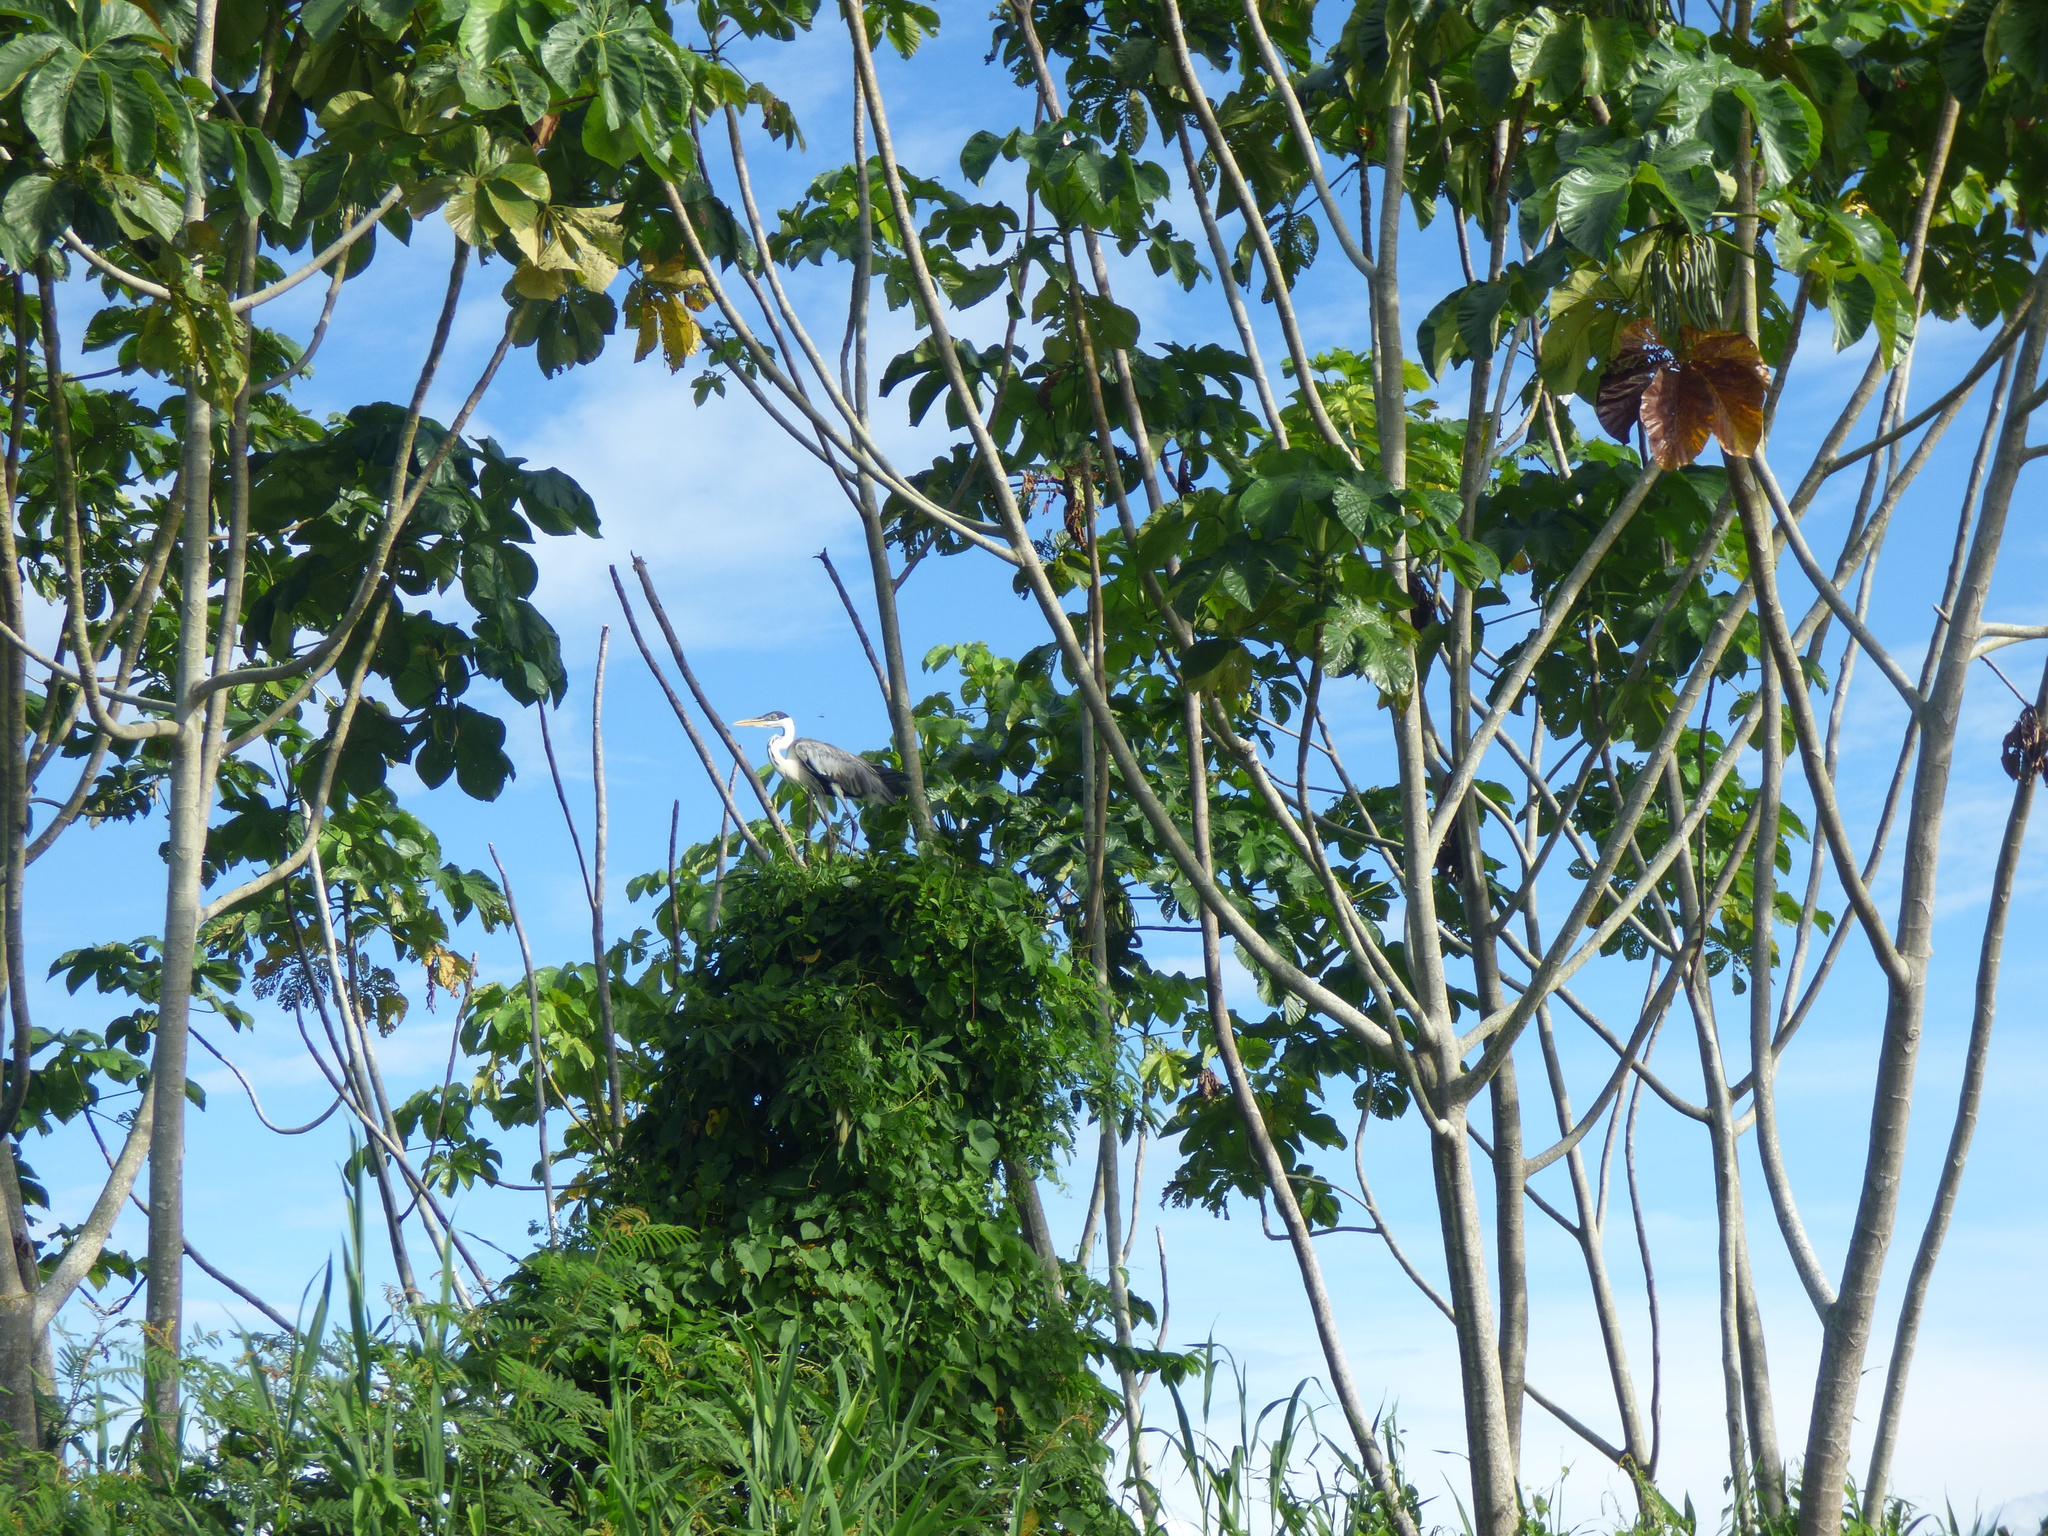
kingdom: Animalia
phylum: Chordata
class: Aves
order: Pelecaniformes
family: Ardeidae
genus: Ardea
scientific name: Ardea cocoi
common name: Cocoi heron
